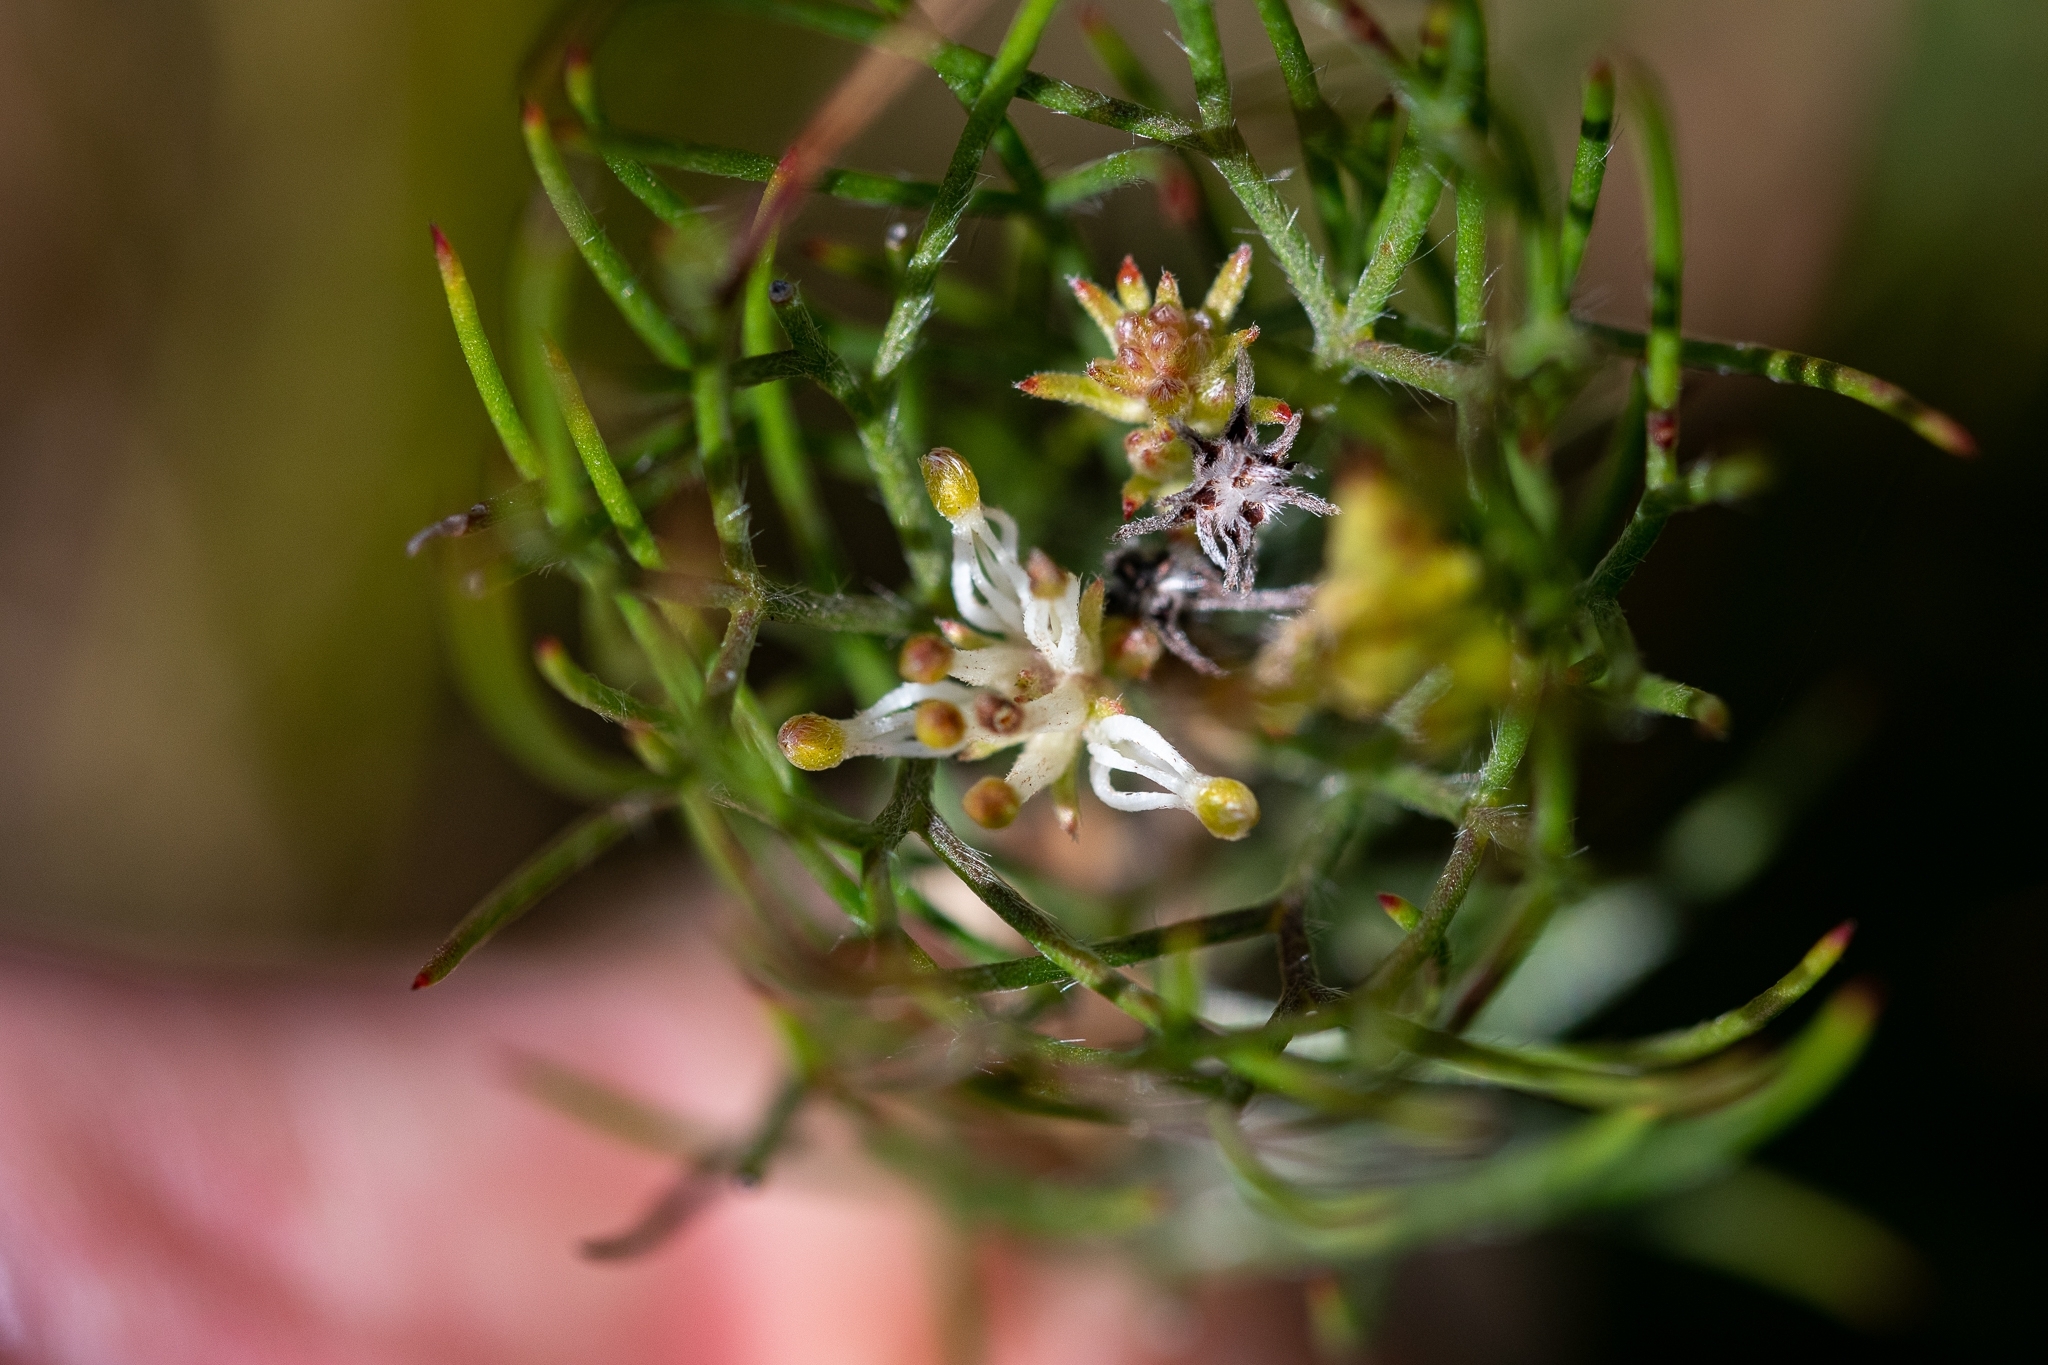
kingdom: Plantae
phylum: Tracheophyta
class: Magnoliopsida
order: Proteales
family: Proteaceae
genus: Serruria
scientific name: Serruria inconspicua
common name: Cryptic spiderhead
